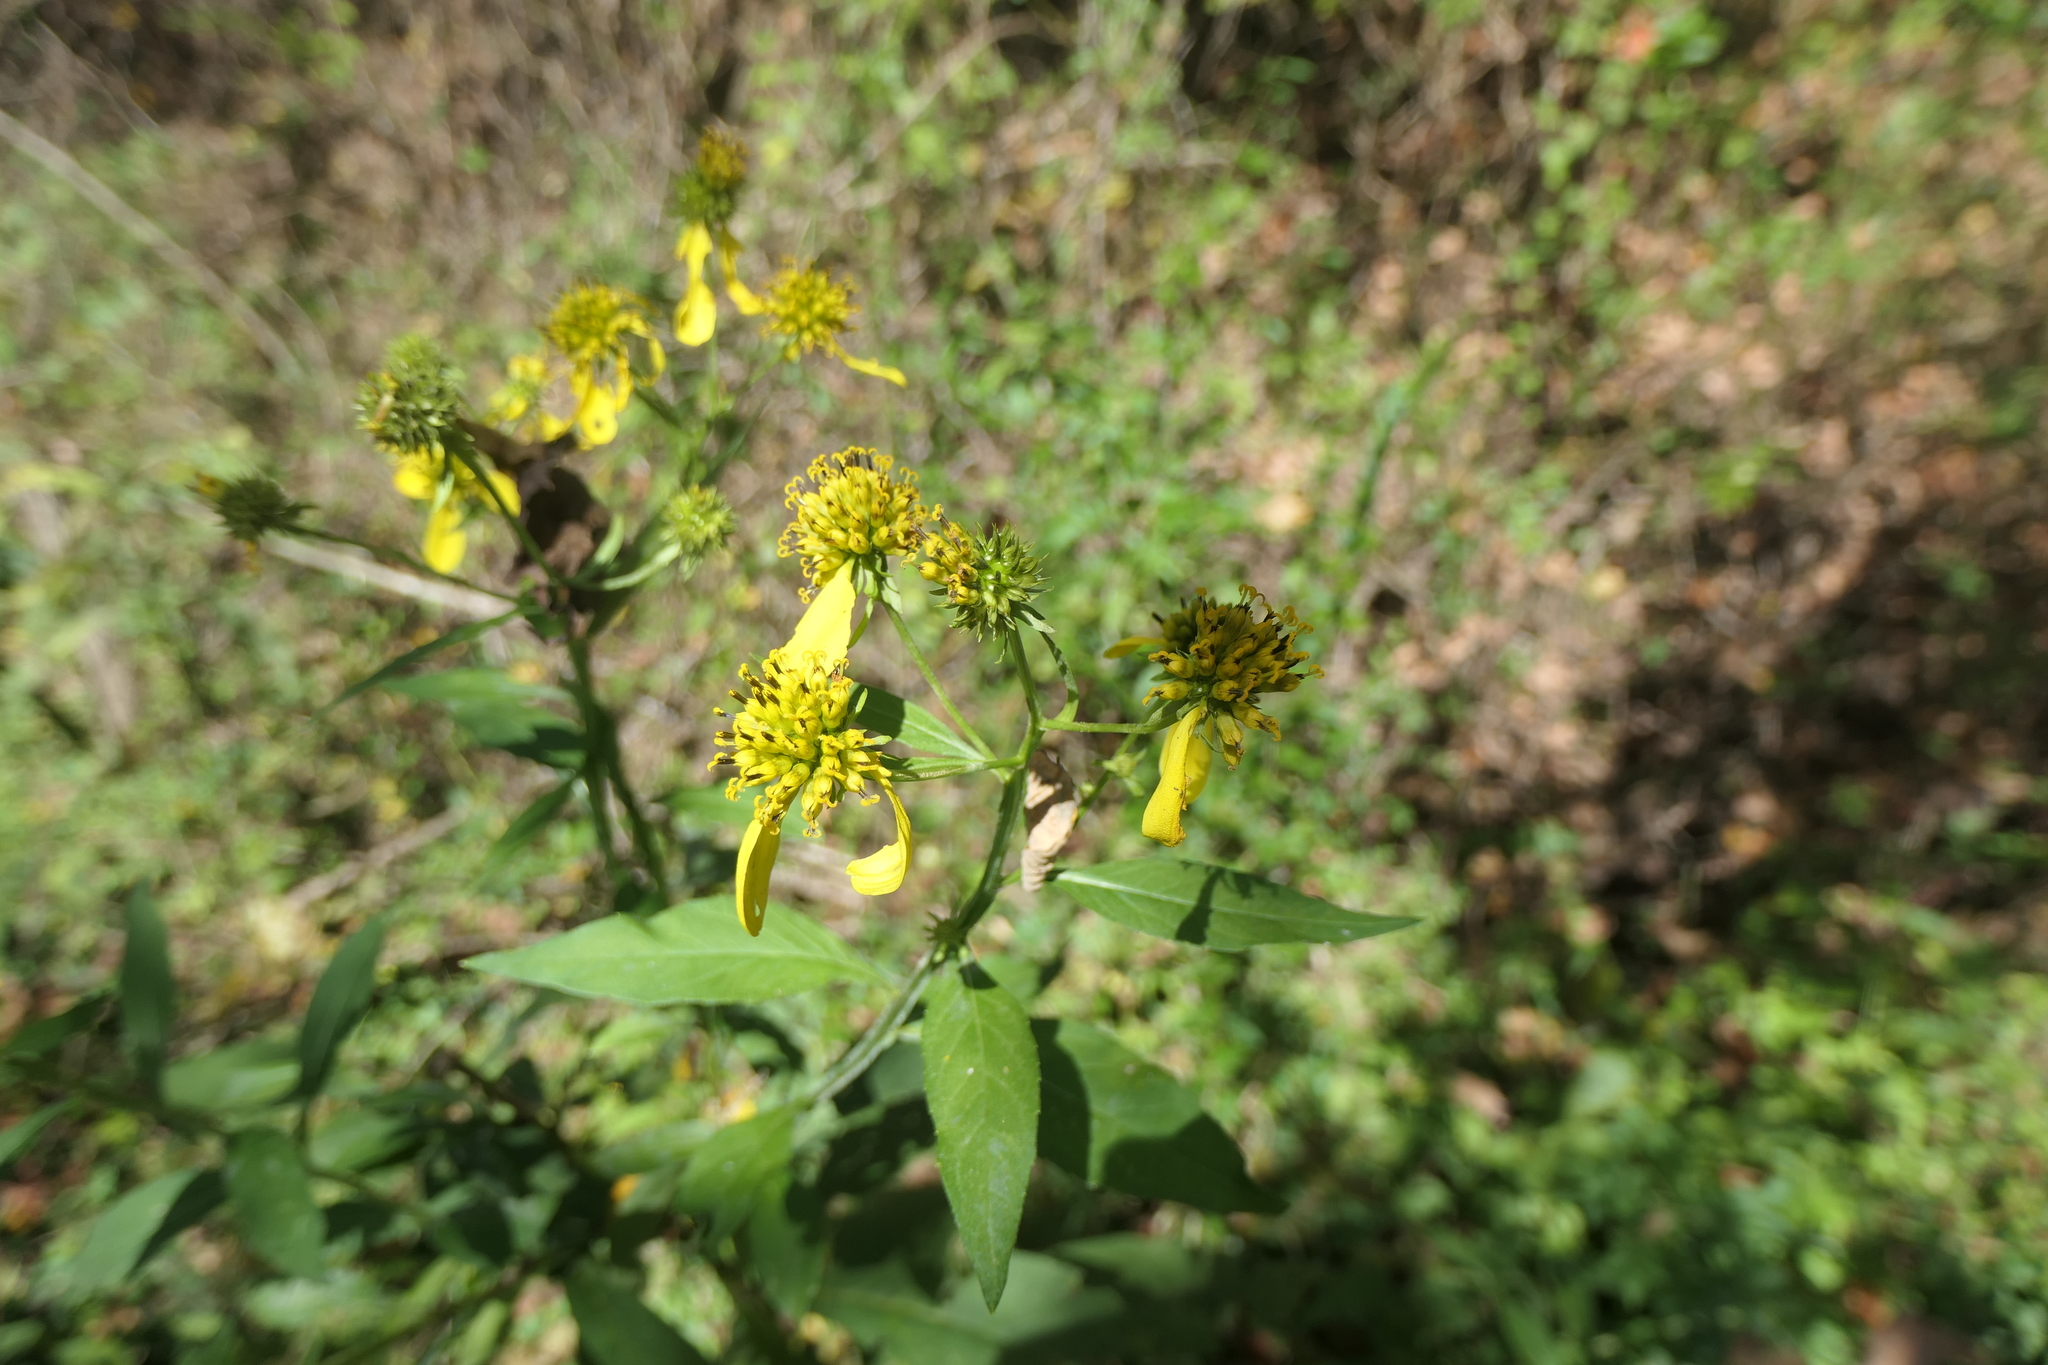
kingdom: Plantae
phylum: Tracheophyta
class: Magnoliopsida
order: Asterales
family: Asteraceae
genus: Verbesina
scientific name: Verbesina alternifolia
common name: Wingstem
